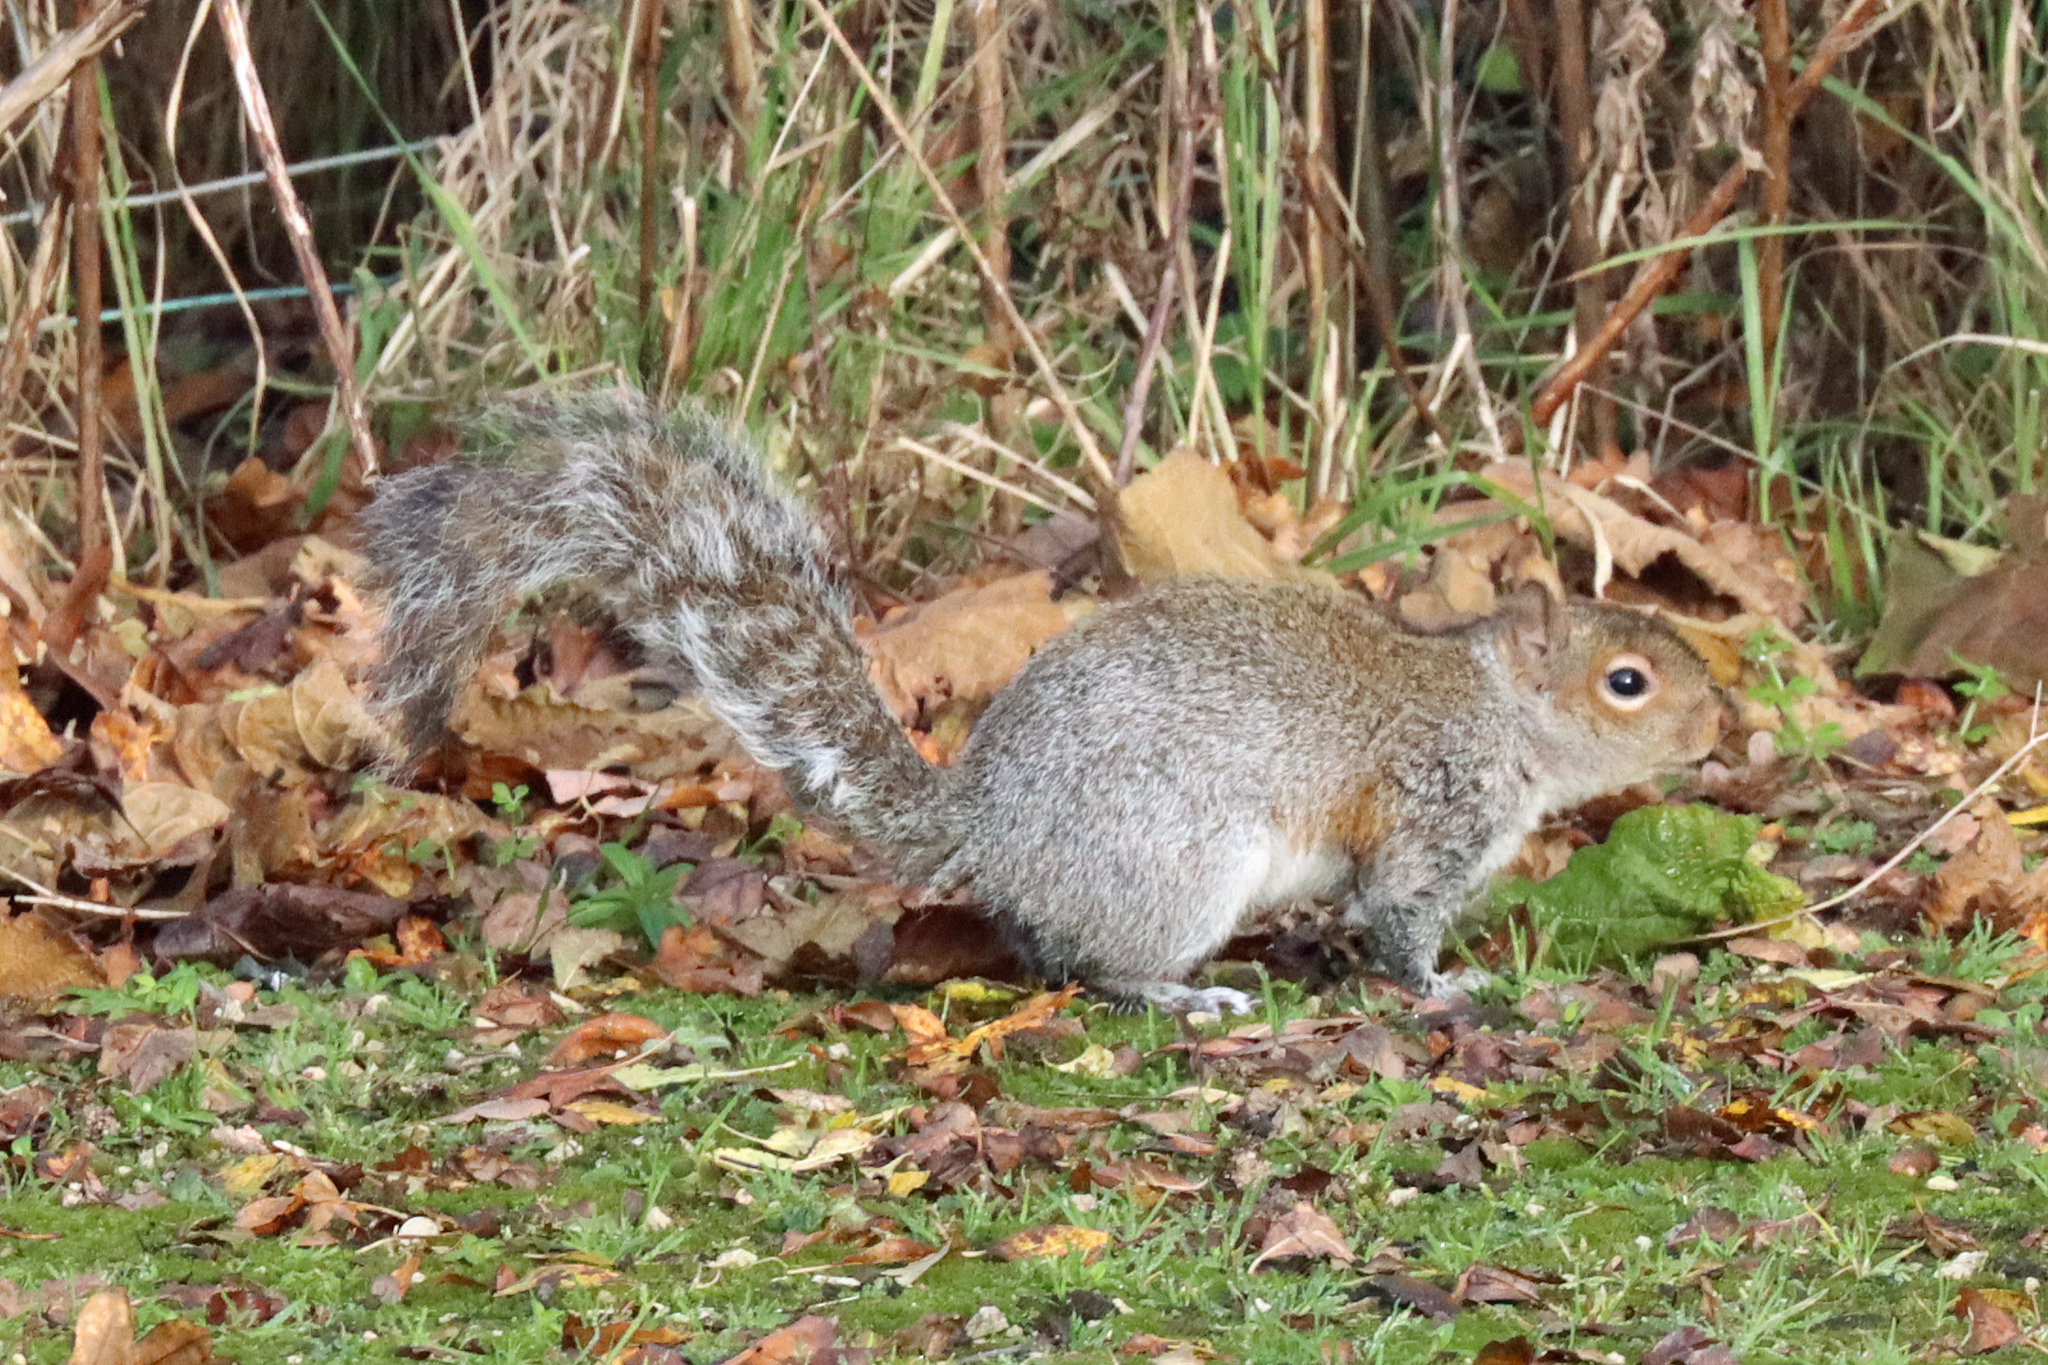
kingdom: Animalia
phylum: Chordata
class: Mammalia
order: Rodentia
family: Sciuridae
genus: Sciurus
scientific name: Sciurus carolinensis
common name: Eastern gray squirrel
